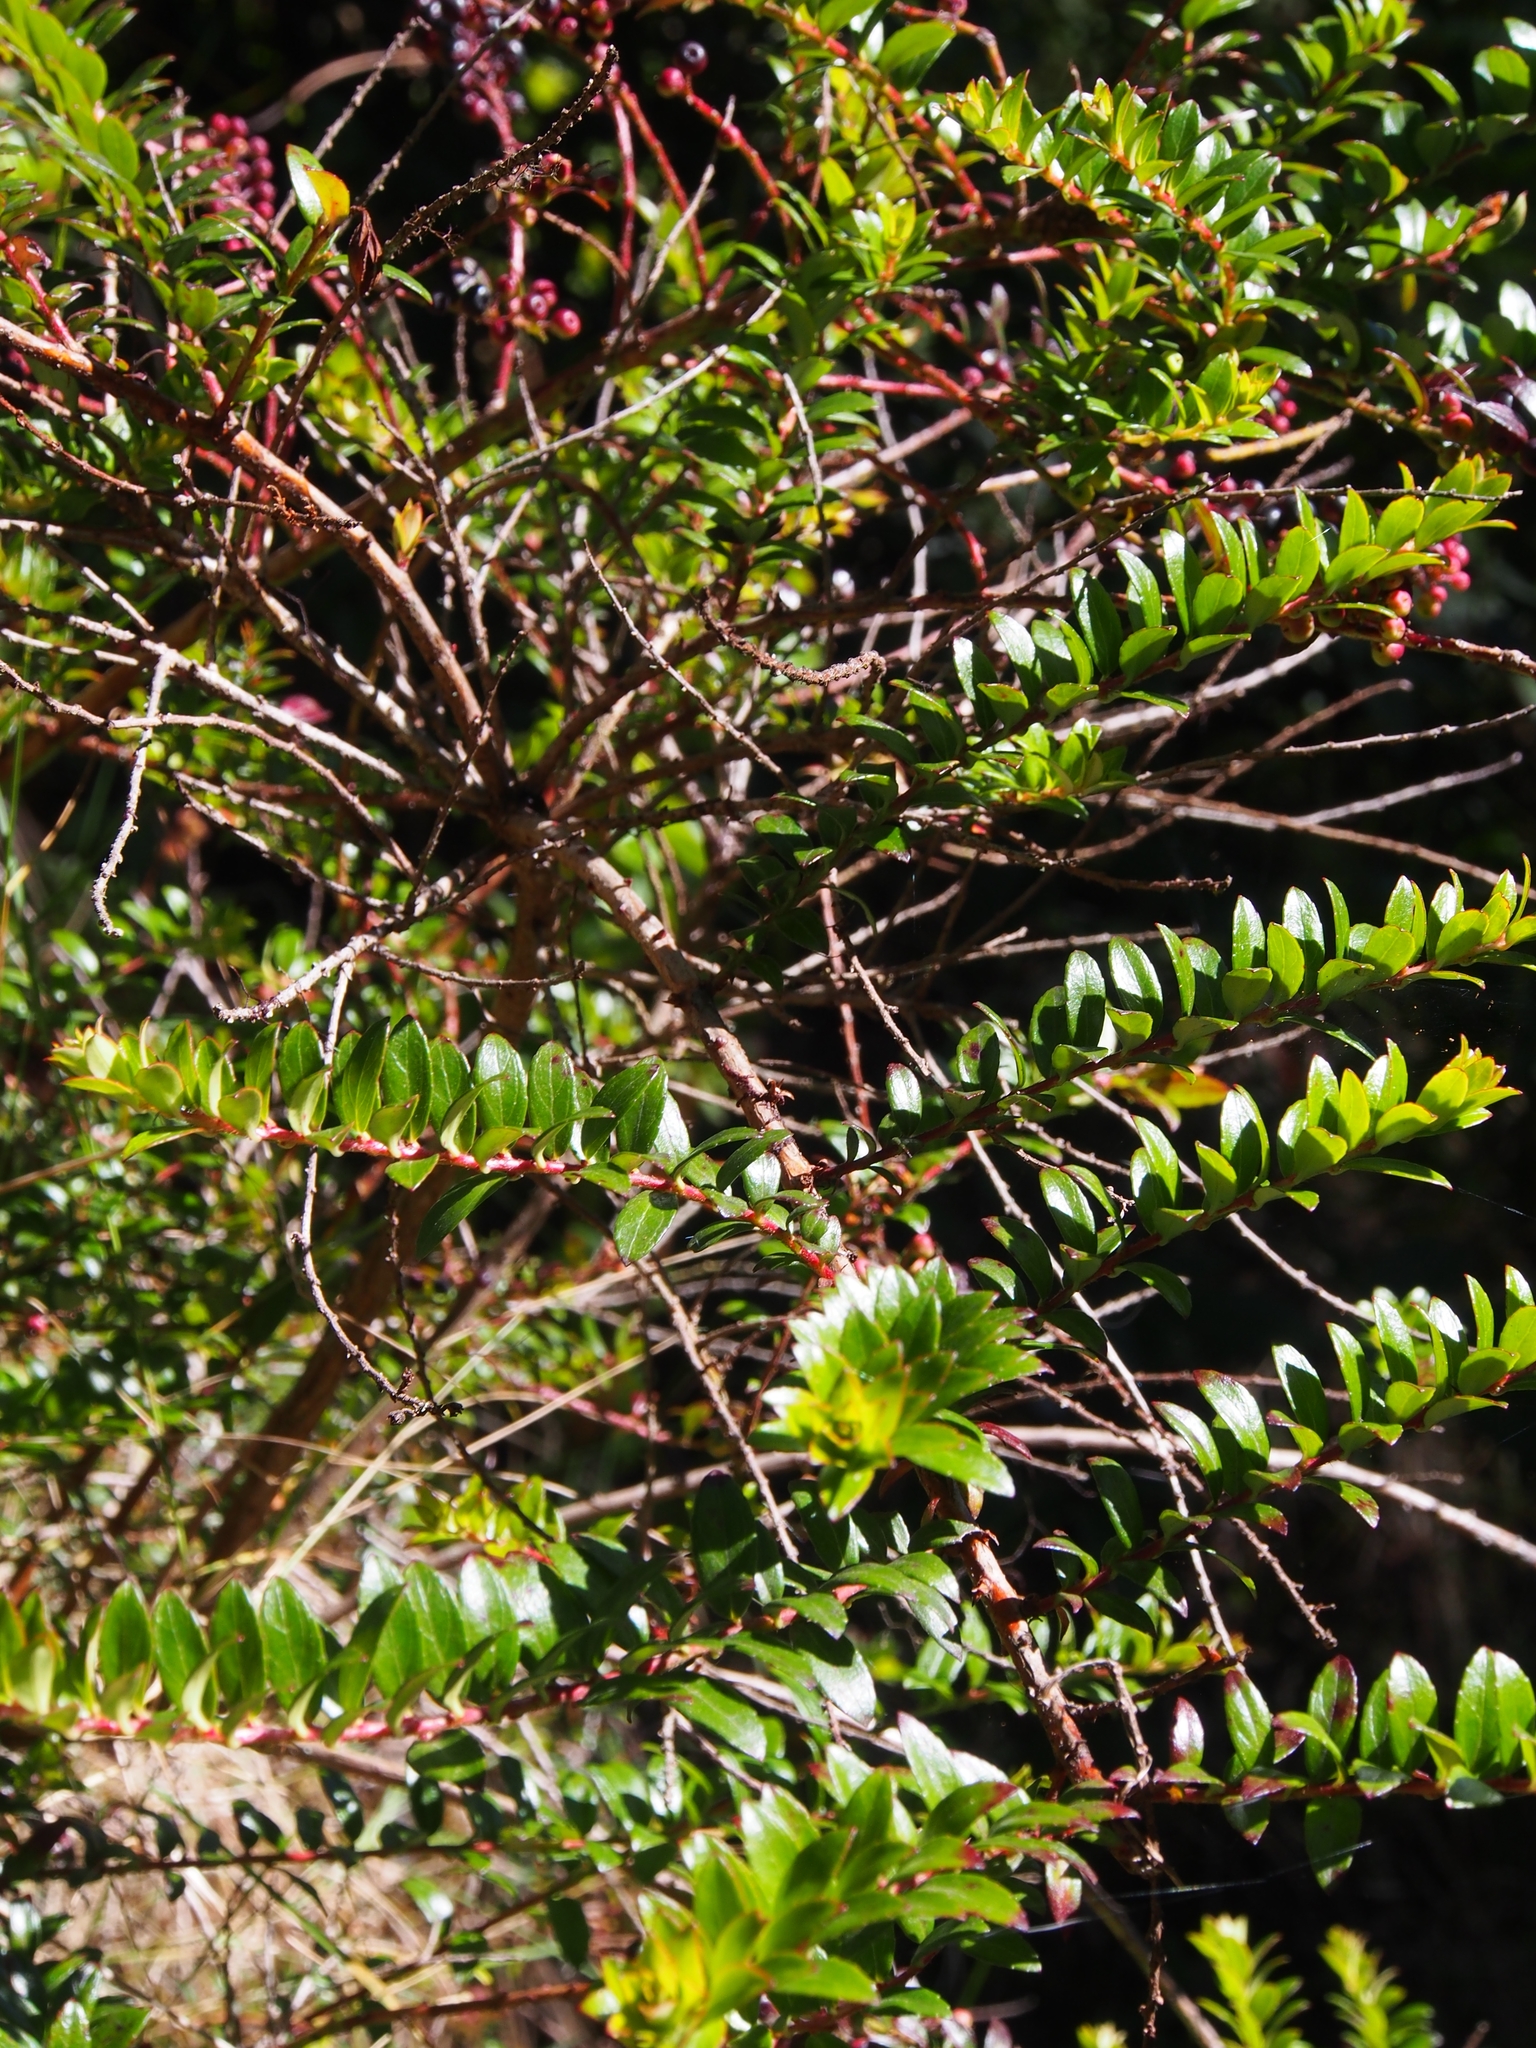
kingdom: Plantae
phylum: Tracheophyta
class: Magnoliopsida
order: Ericales
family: Ericaceae
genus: Gaultheria
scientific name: Gaultheria myrsinoides
